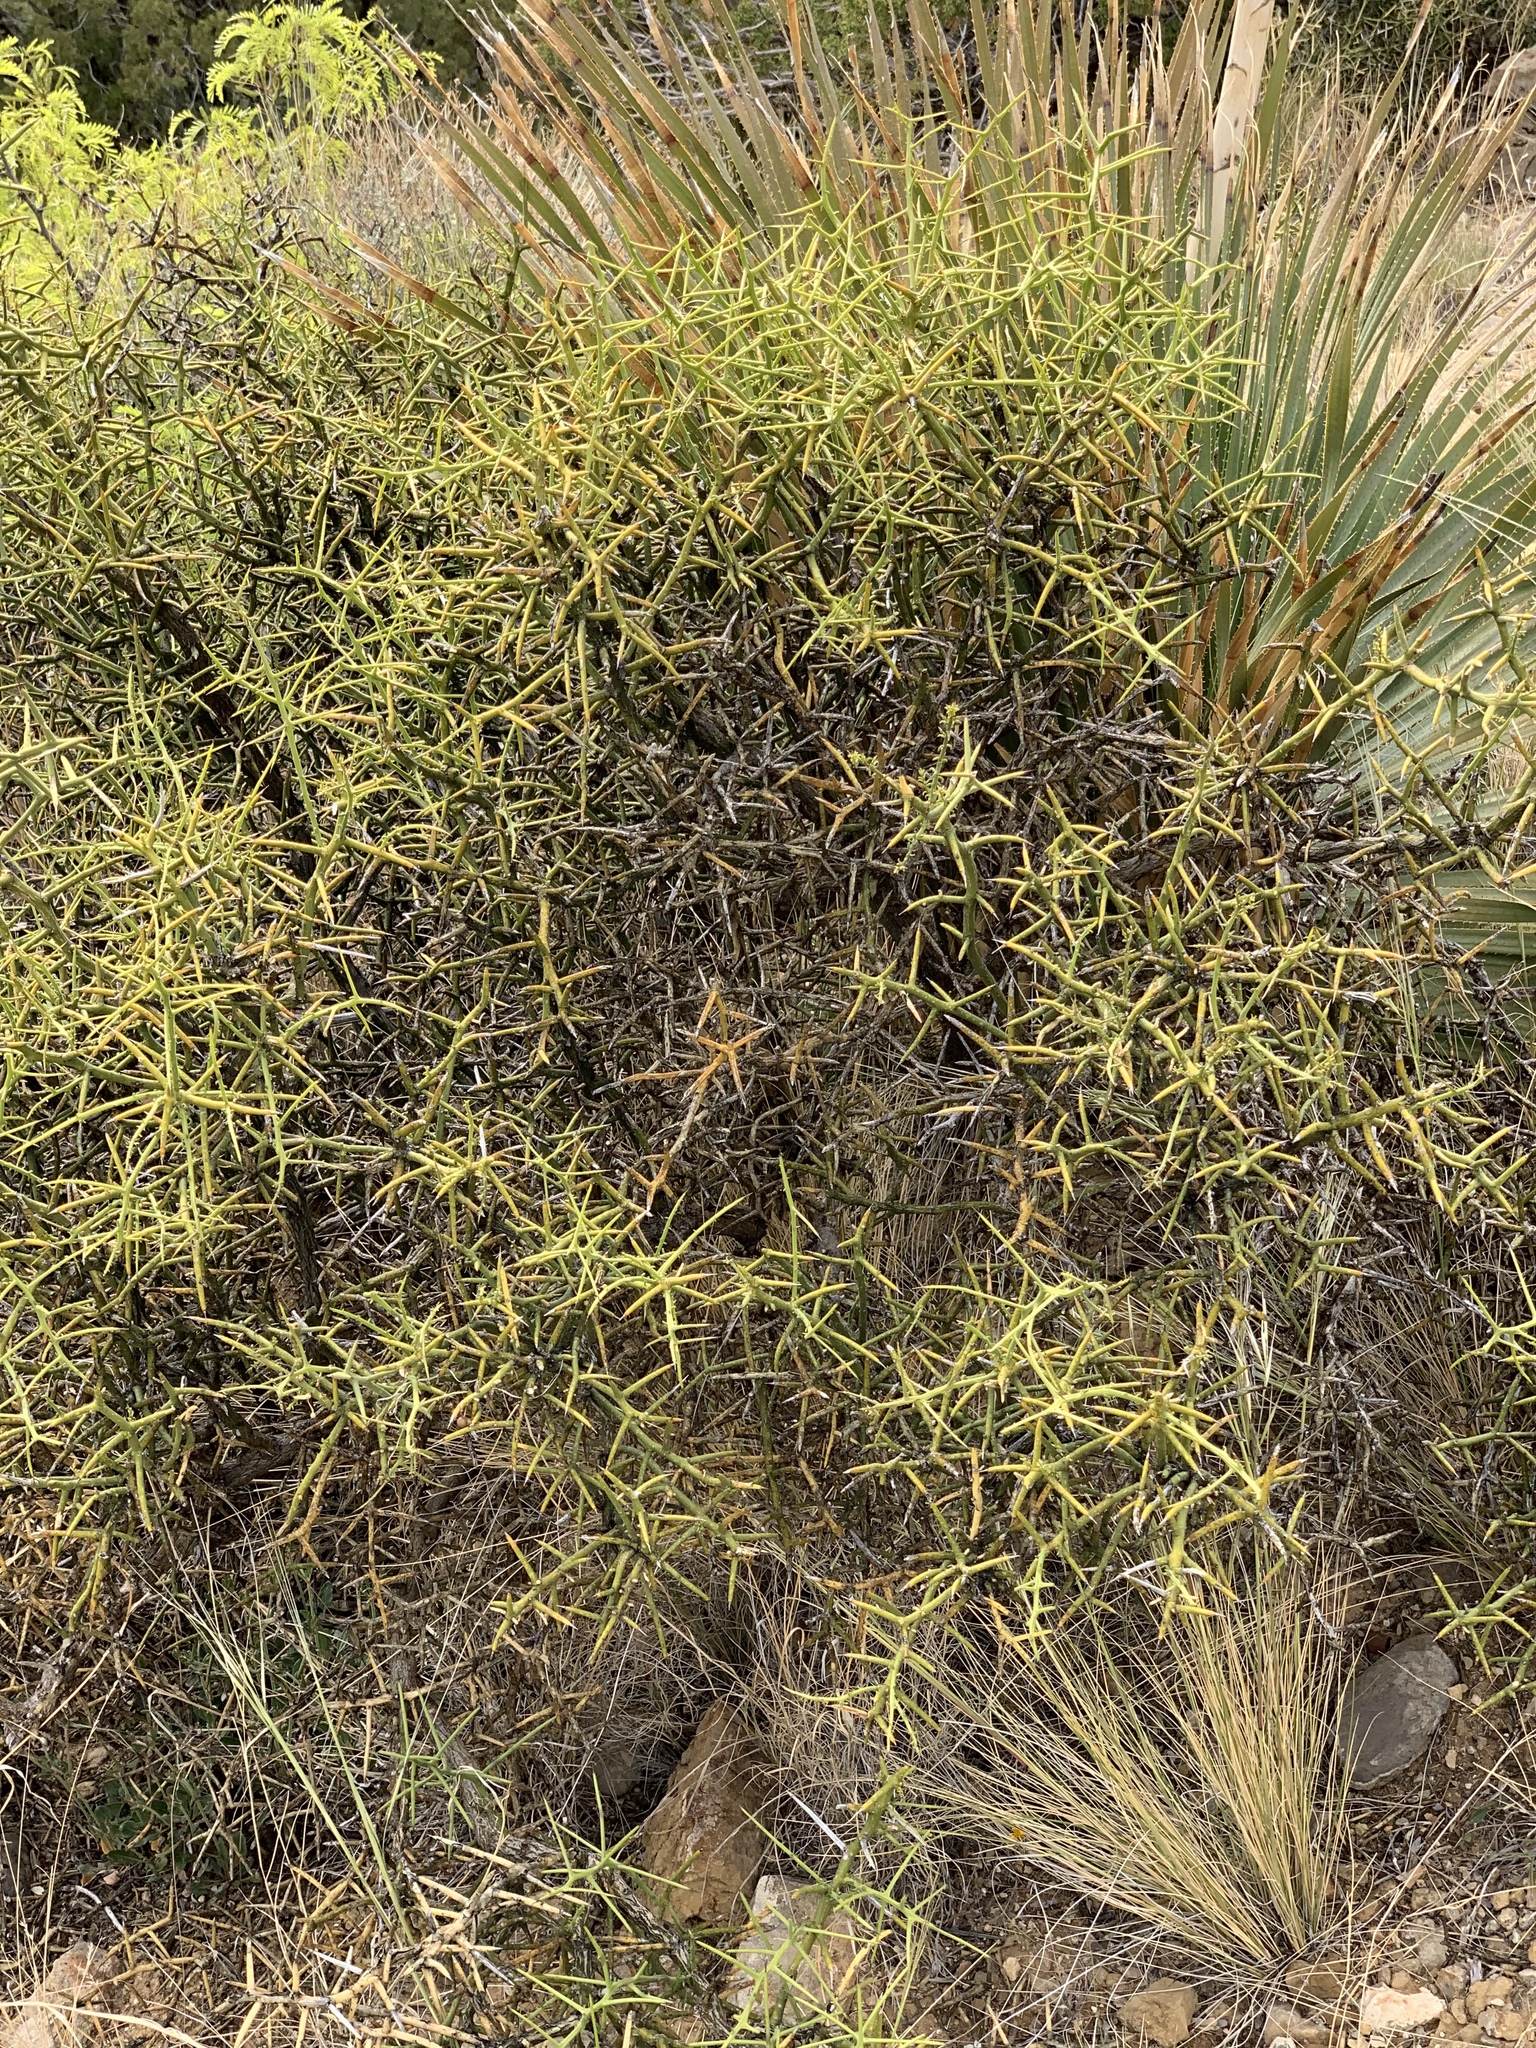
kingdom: Plantae
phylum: Tracheophyta
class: Magnoliopsida
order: Brassicales
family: Koeberliniaceae
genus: Koeberlinia
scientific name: Koeberlinia spinosa
